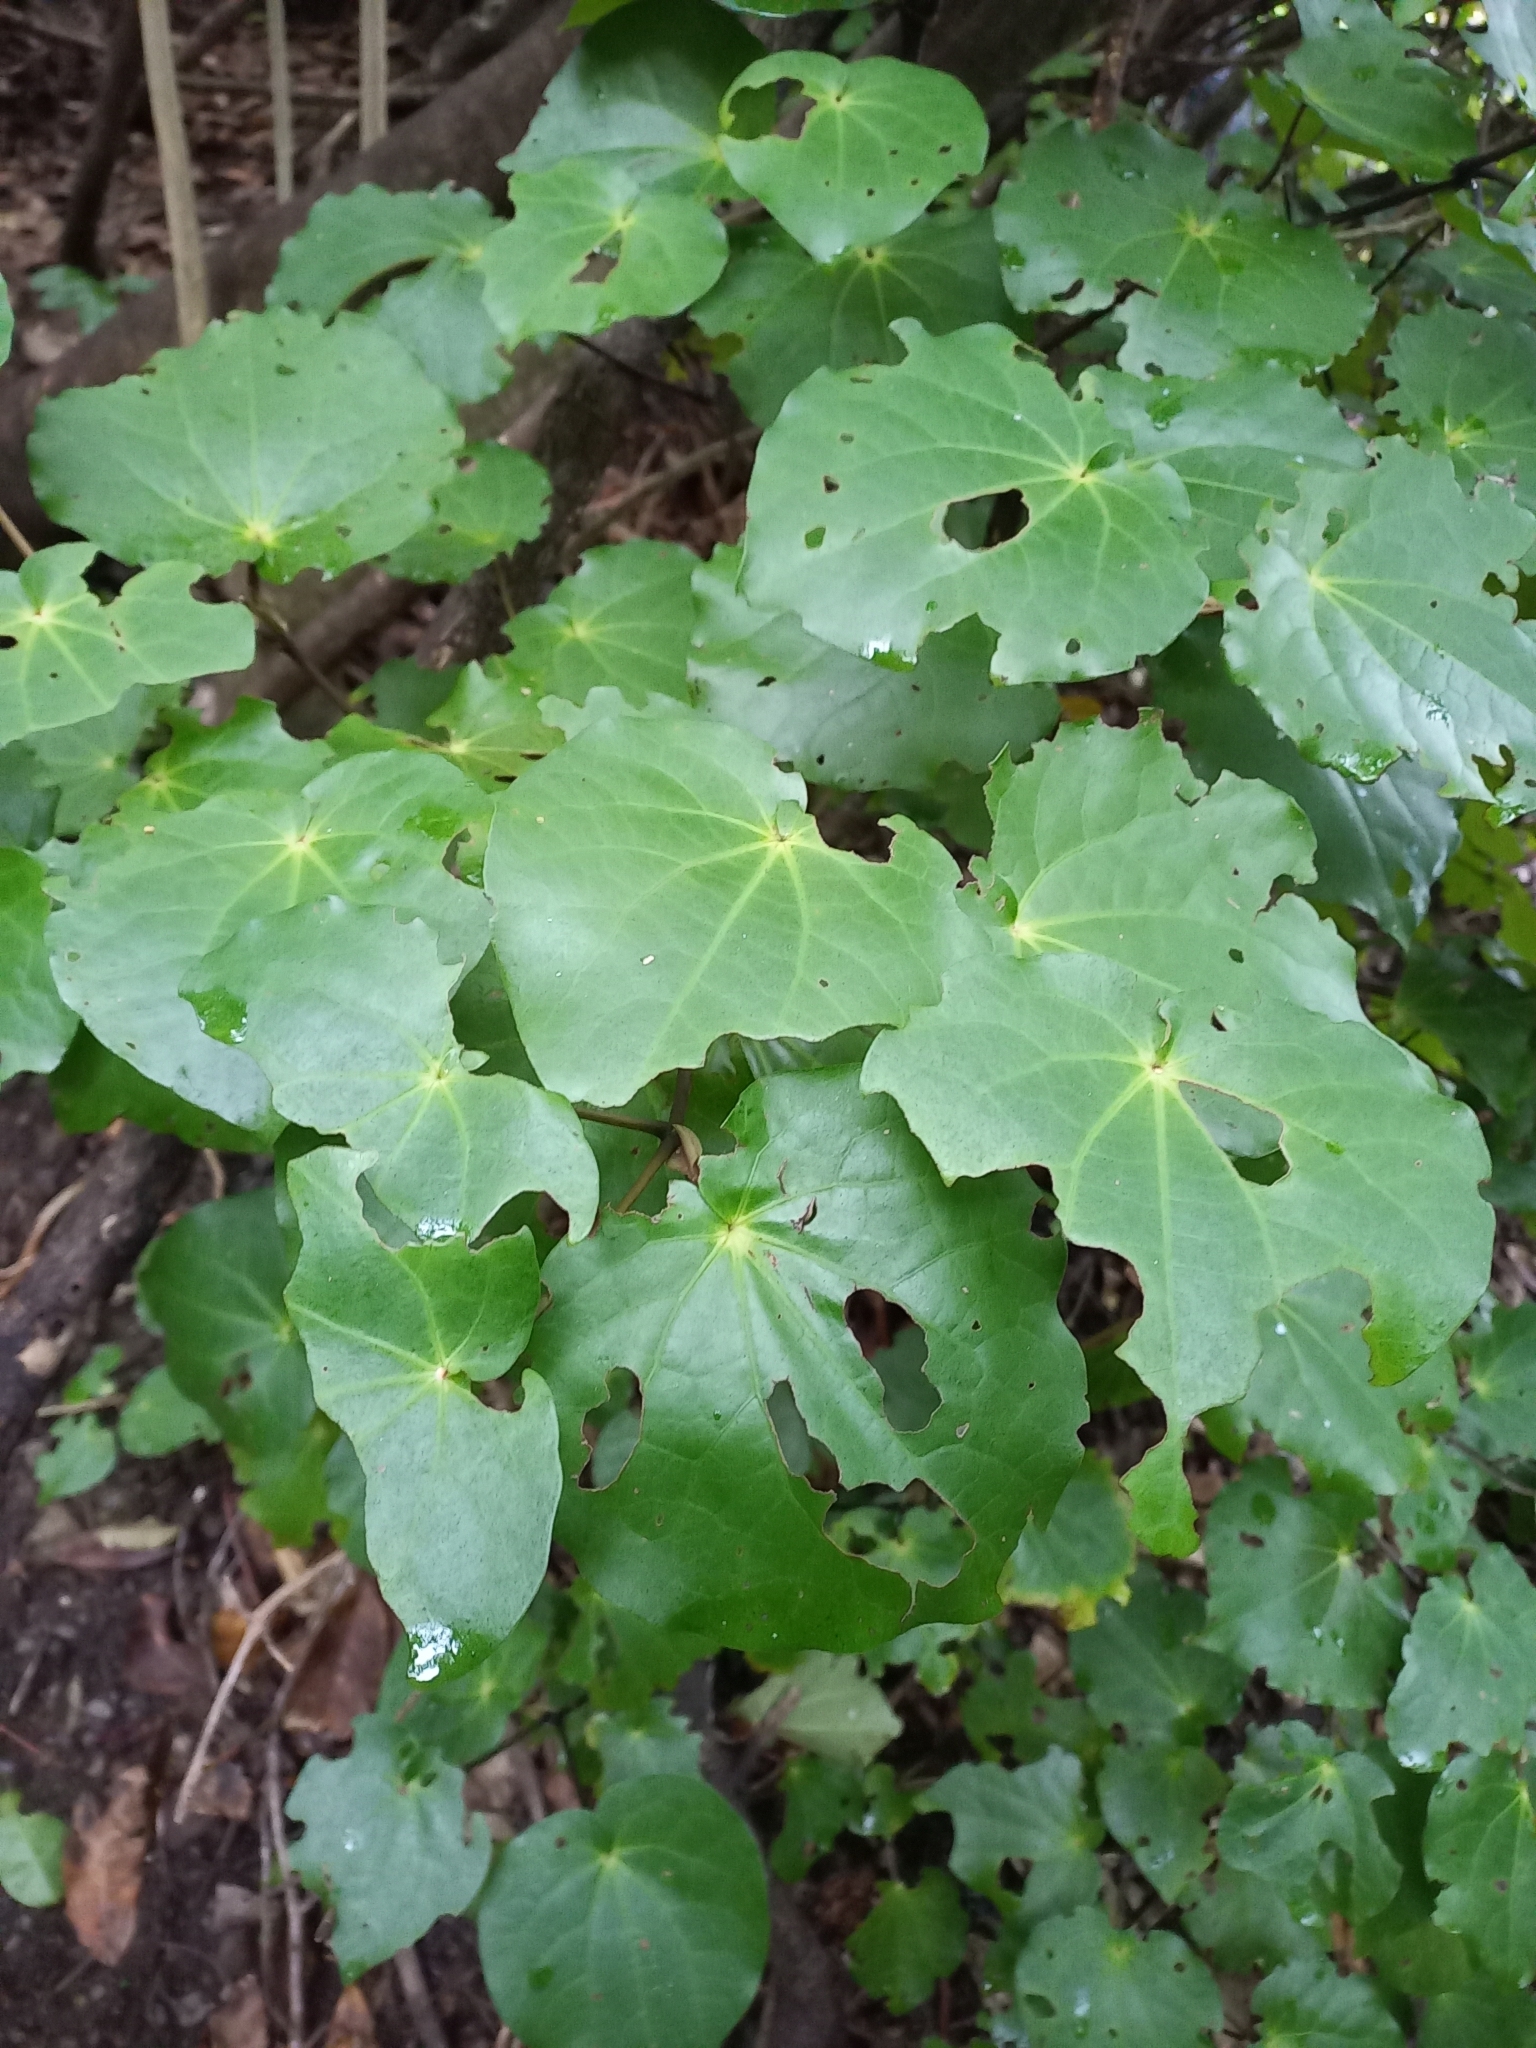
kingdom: Animalia
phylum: Arthropoda
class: Insecta
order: Lepidoptera
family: Geometridae
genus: Cleora
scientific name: Cleora scriptaria
